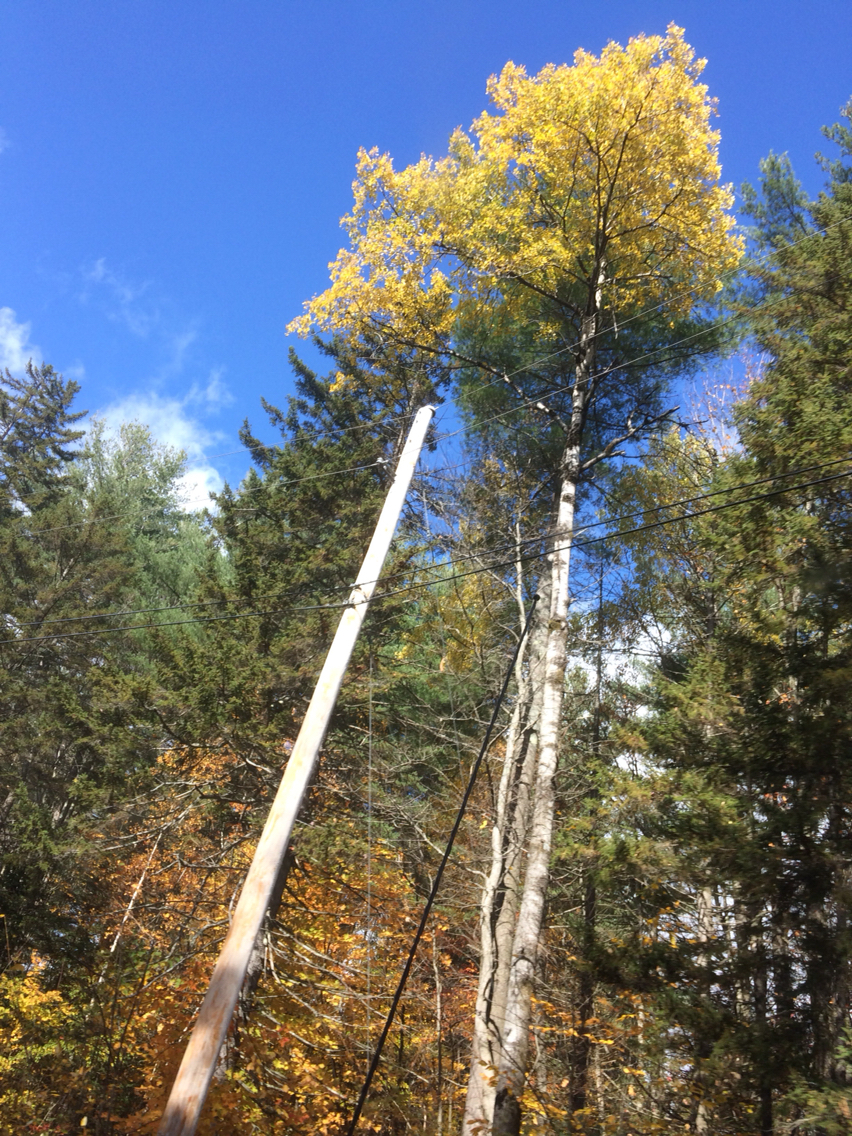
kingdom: Plantae
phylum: Tracheophyta
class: Magnoliopsida
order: Malpighiales
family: Salicaceae
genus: Populus
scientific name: Populus tremuloides
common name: Quaking aspen
